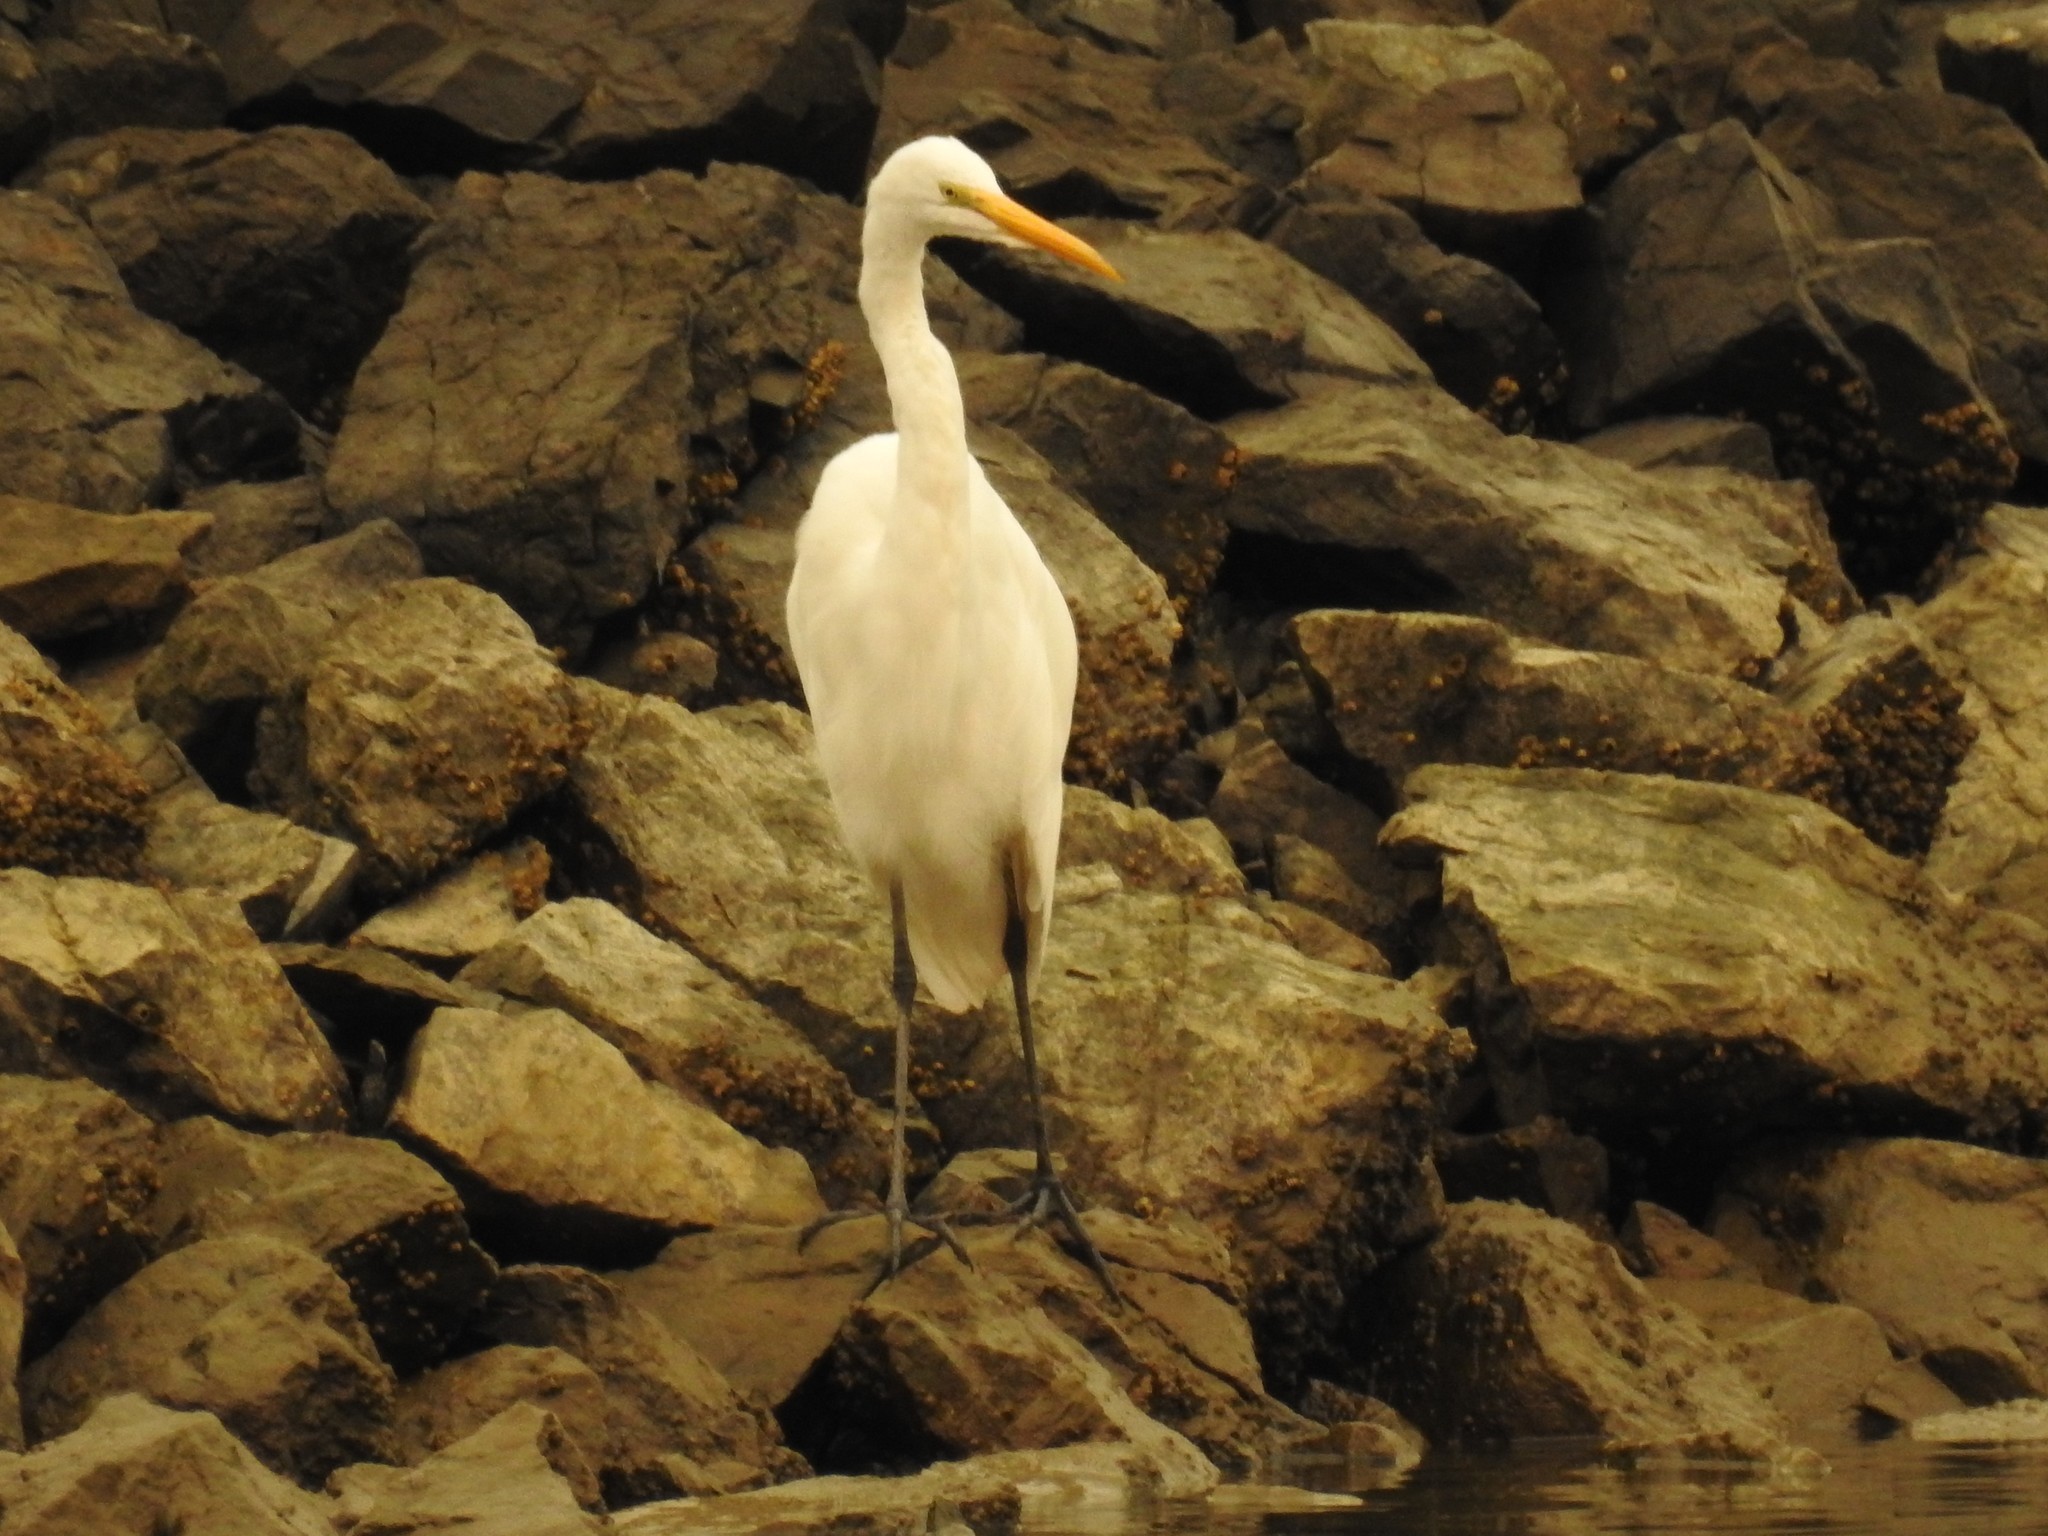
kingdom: Animalia
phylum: Chordata
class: Aves
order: Pelecaniformes
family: Ardeidae
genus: Ardea
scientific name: Ardea alba
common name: Great egret
